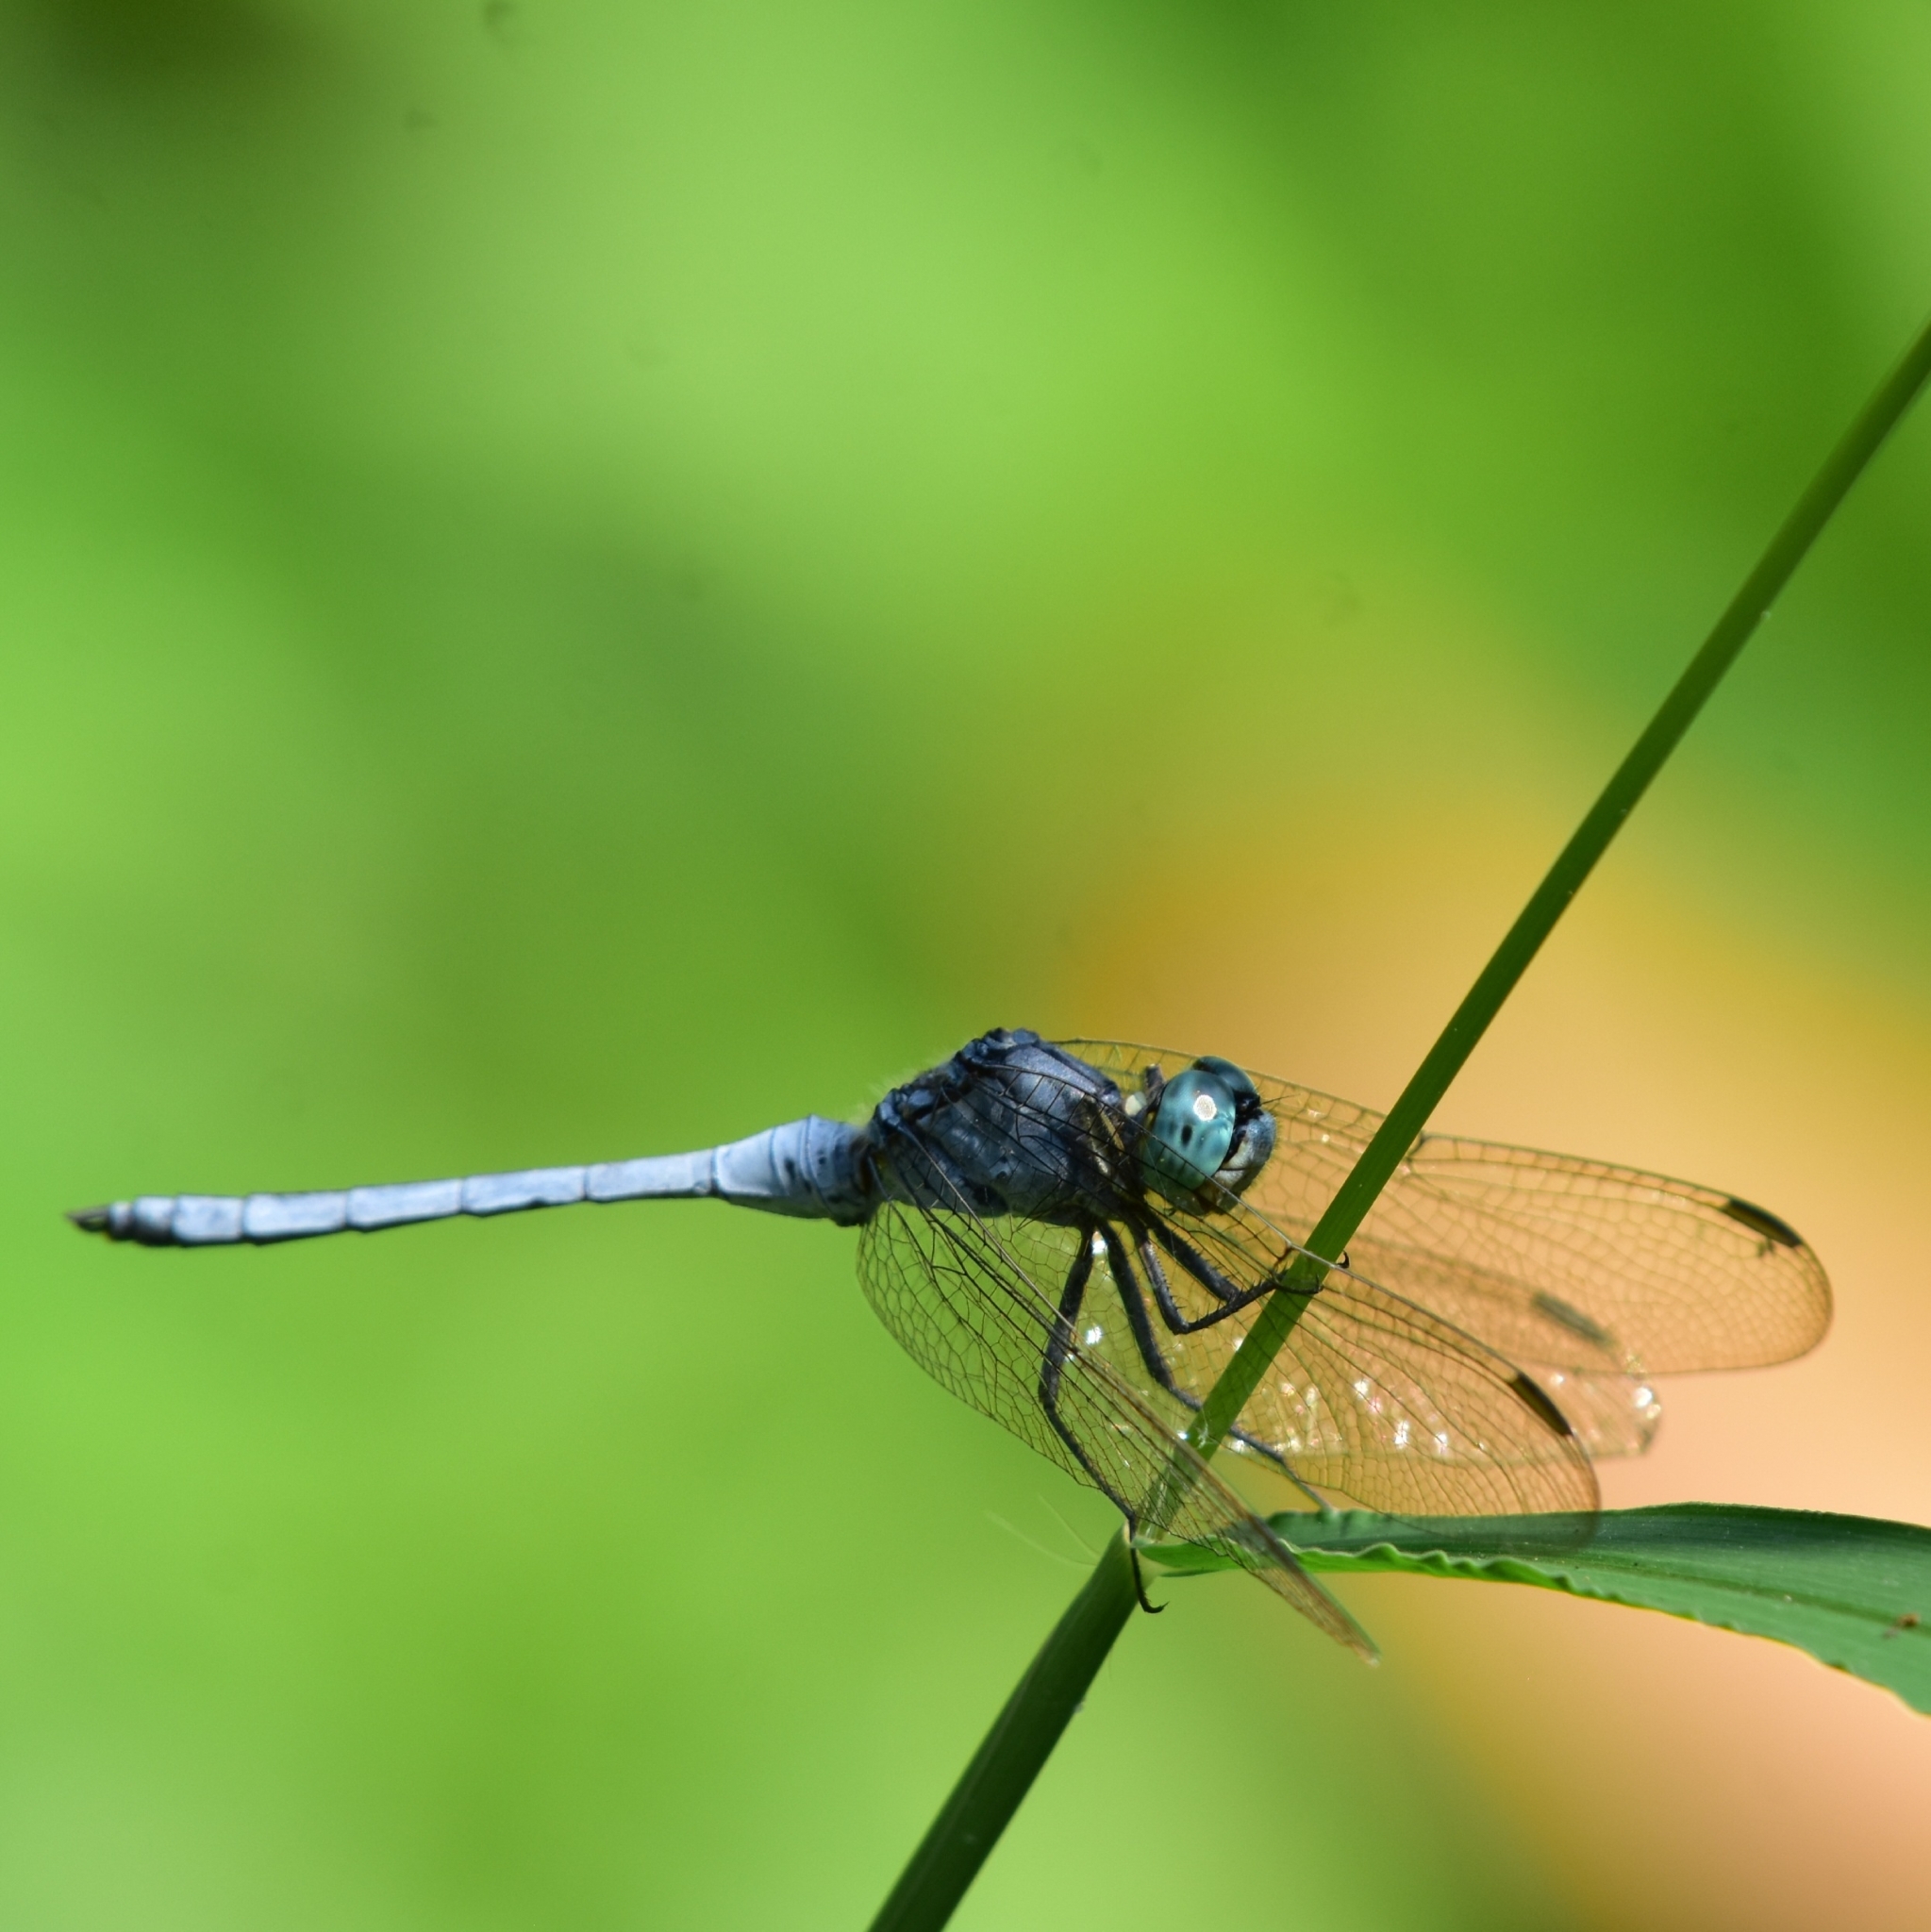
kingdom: Animalia
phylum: Arthropoda
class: Insecta
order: Odonata
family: Libellulidae
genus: Orthetrum
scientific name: Orthetrum luzonicum
